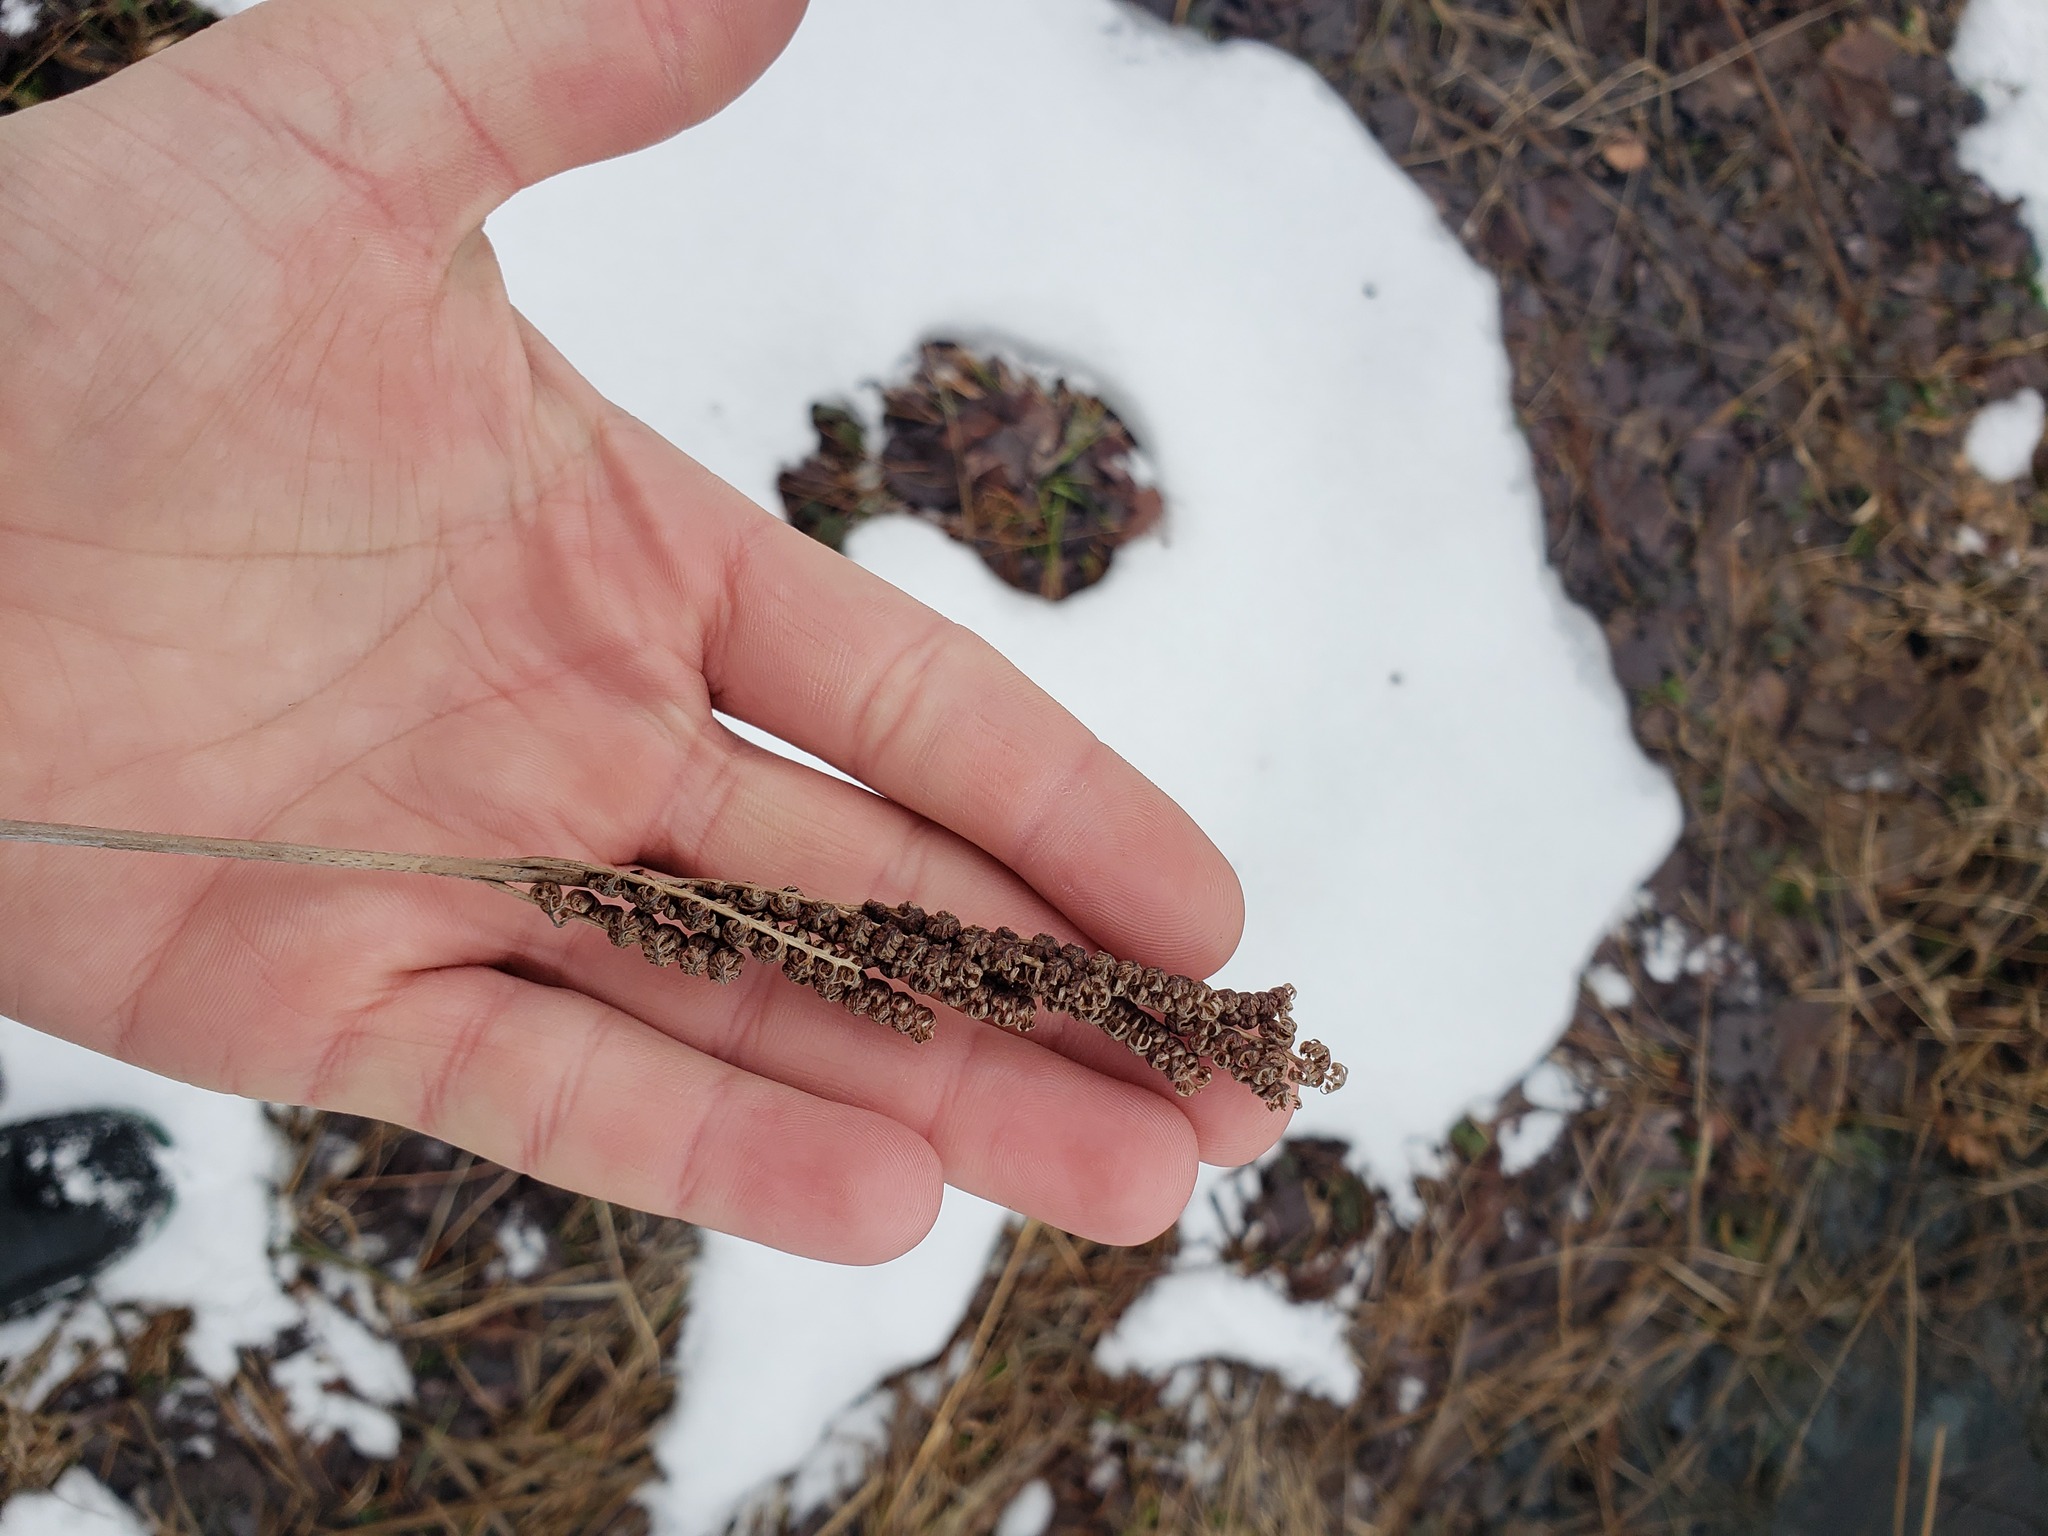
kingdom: Plantae
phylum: Tracheophyta
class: Polypodiopsida
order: Polypodiales
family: Onocleaceae
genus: Onoclea
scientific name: Onoclea sensibilis
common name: Sensitive fern
